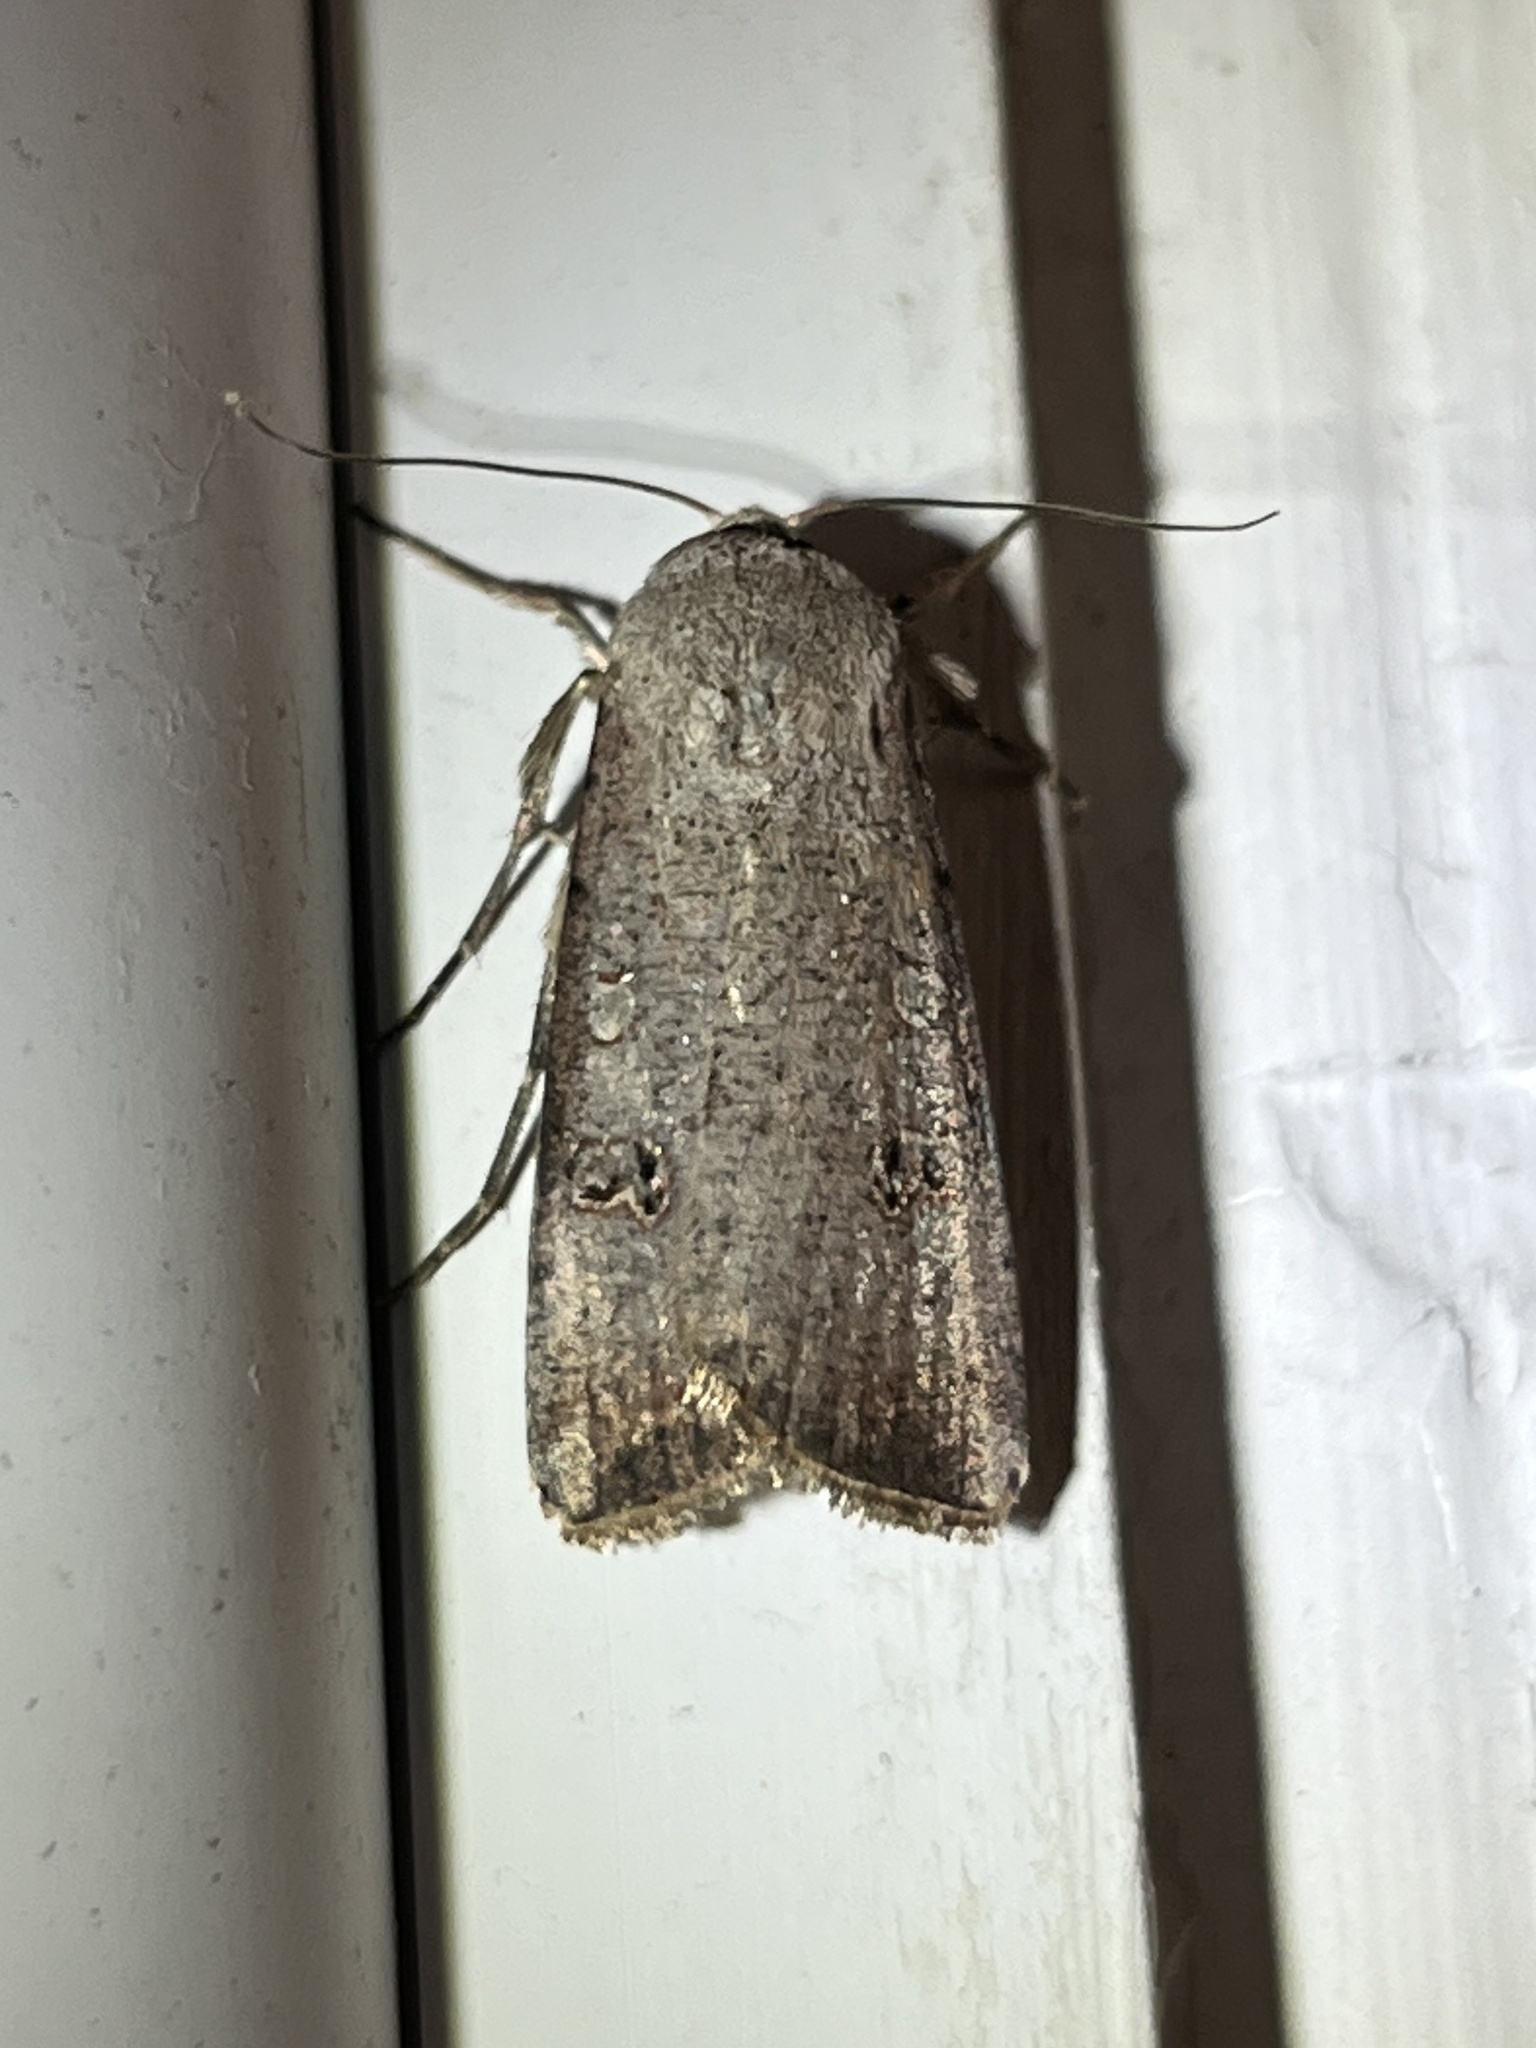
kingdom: Animalia
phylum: Arthropoda
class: Insecta
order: Lepidoptera
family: Noctuidae
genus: Anicla
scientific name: Anicla infecta
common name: Green cutworm
